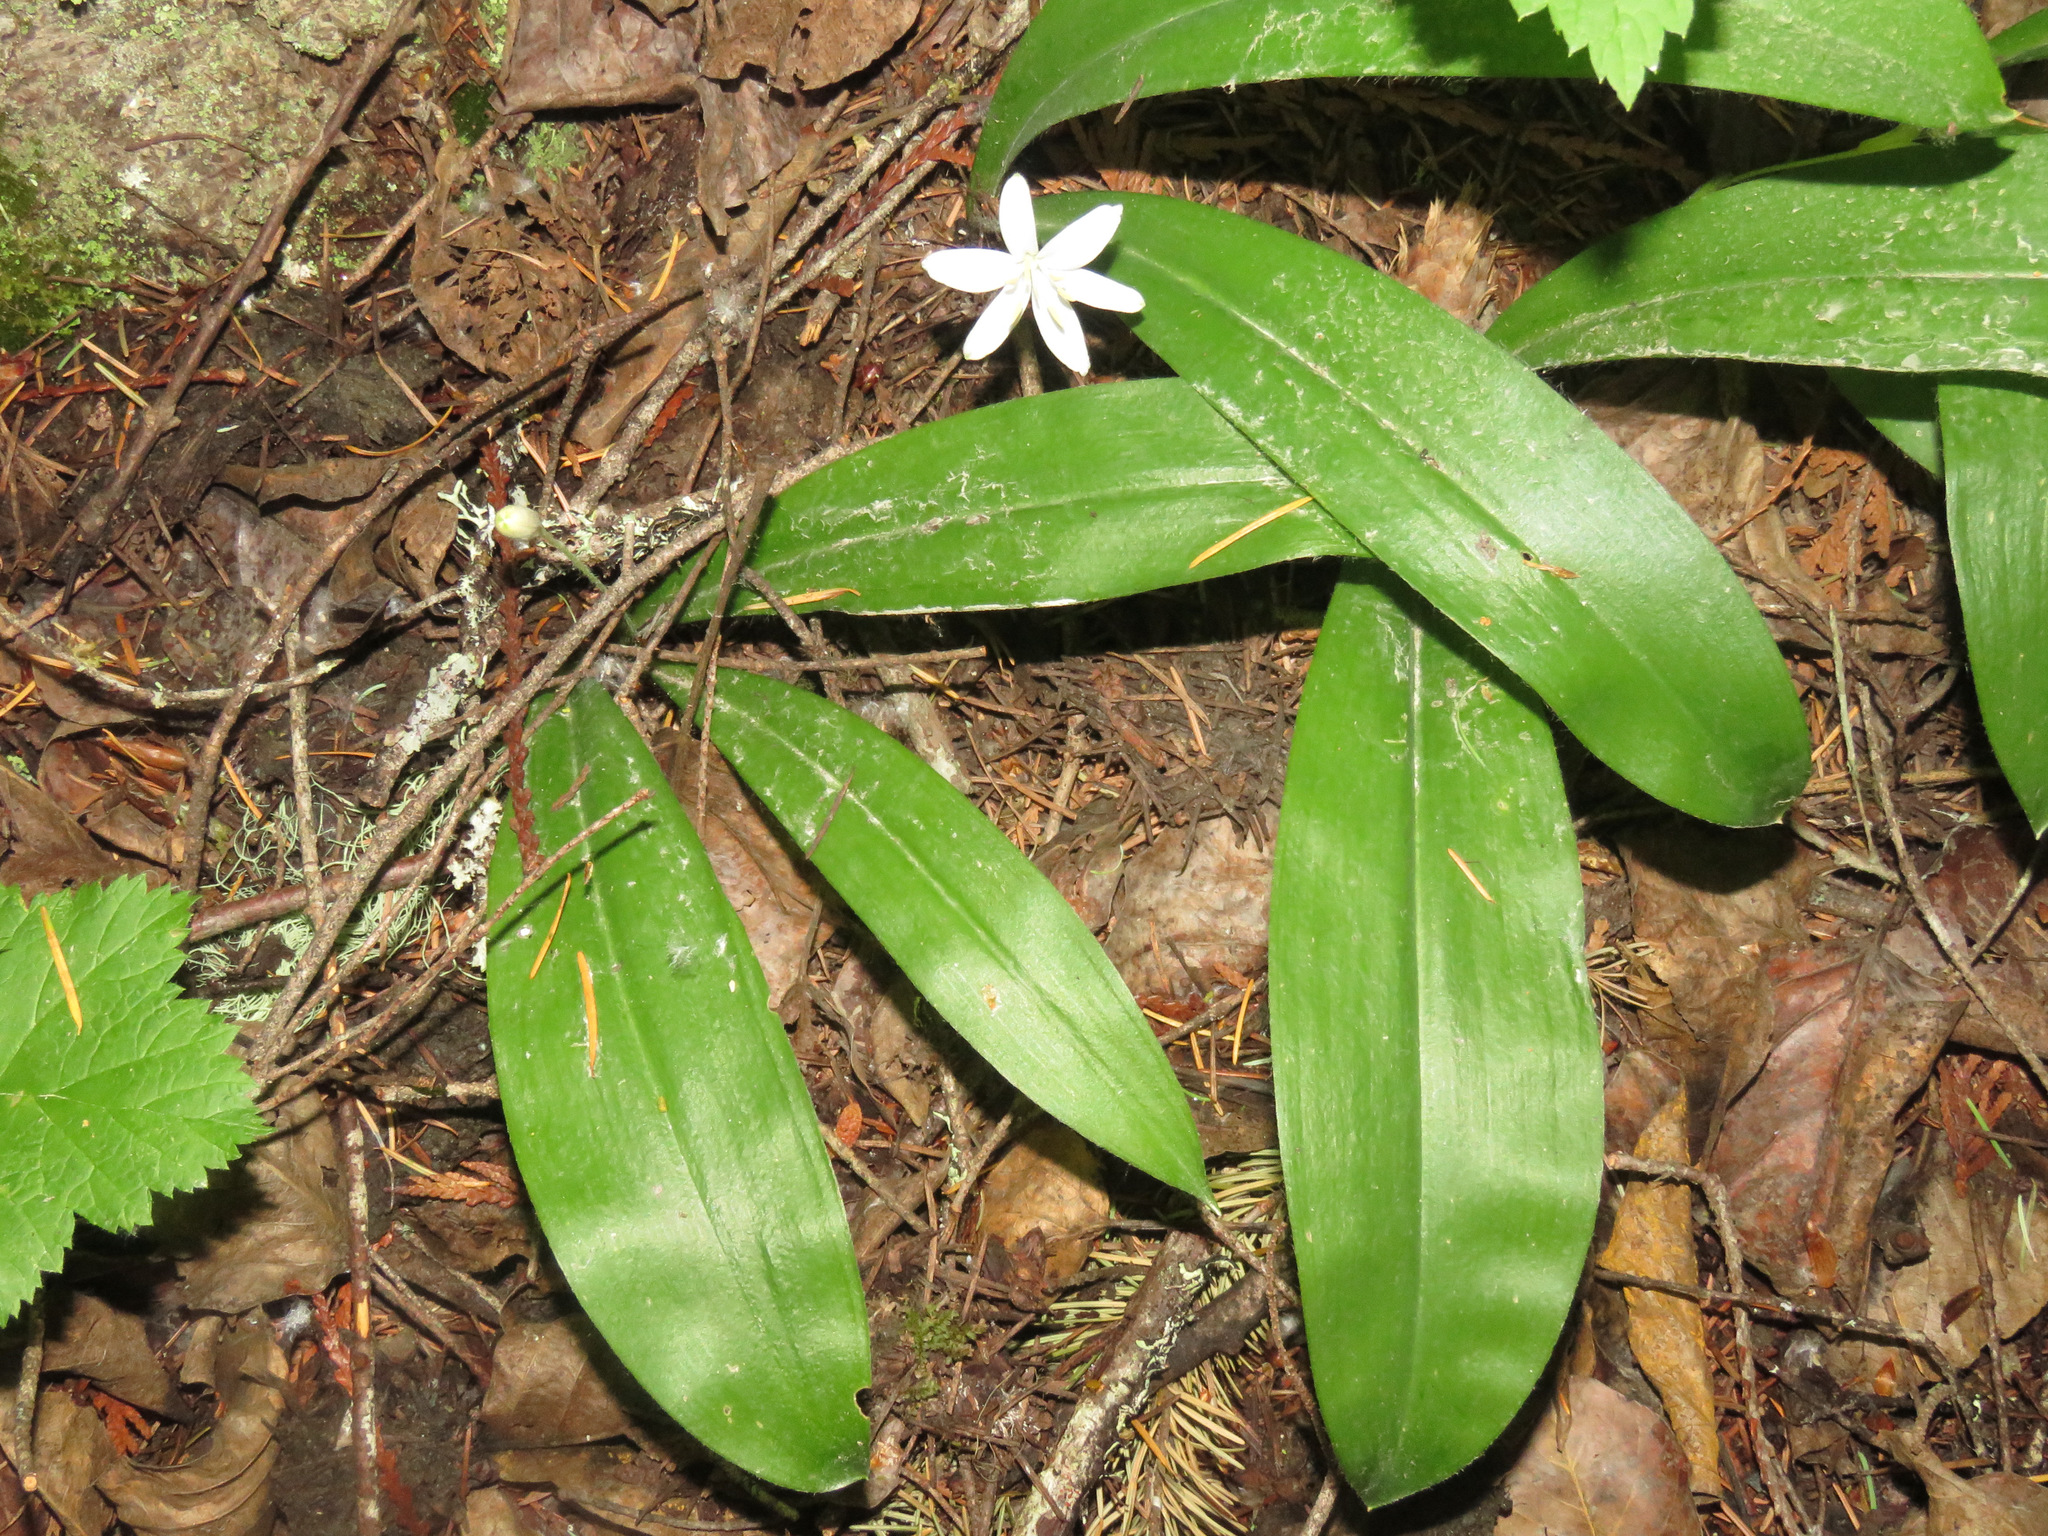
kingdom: Plantae
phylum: Tracheophyta
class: Liliopsida
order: Liliales
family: Liliaceae
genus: Clintonia
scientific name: Clintonia uniflora
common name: Queen's cup
